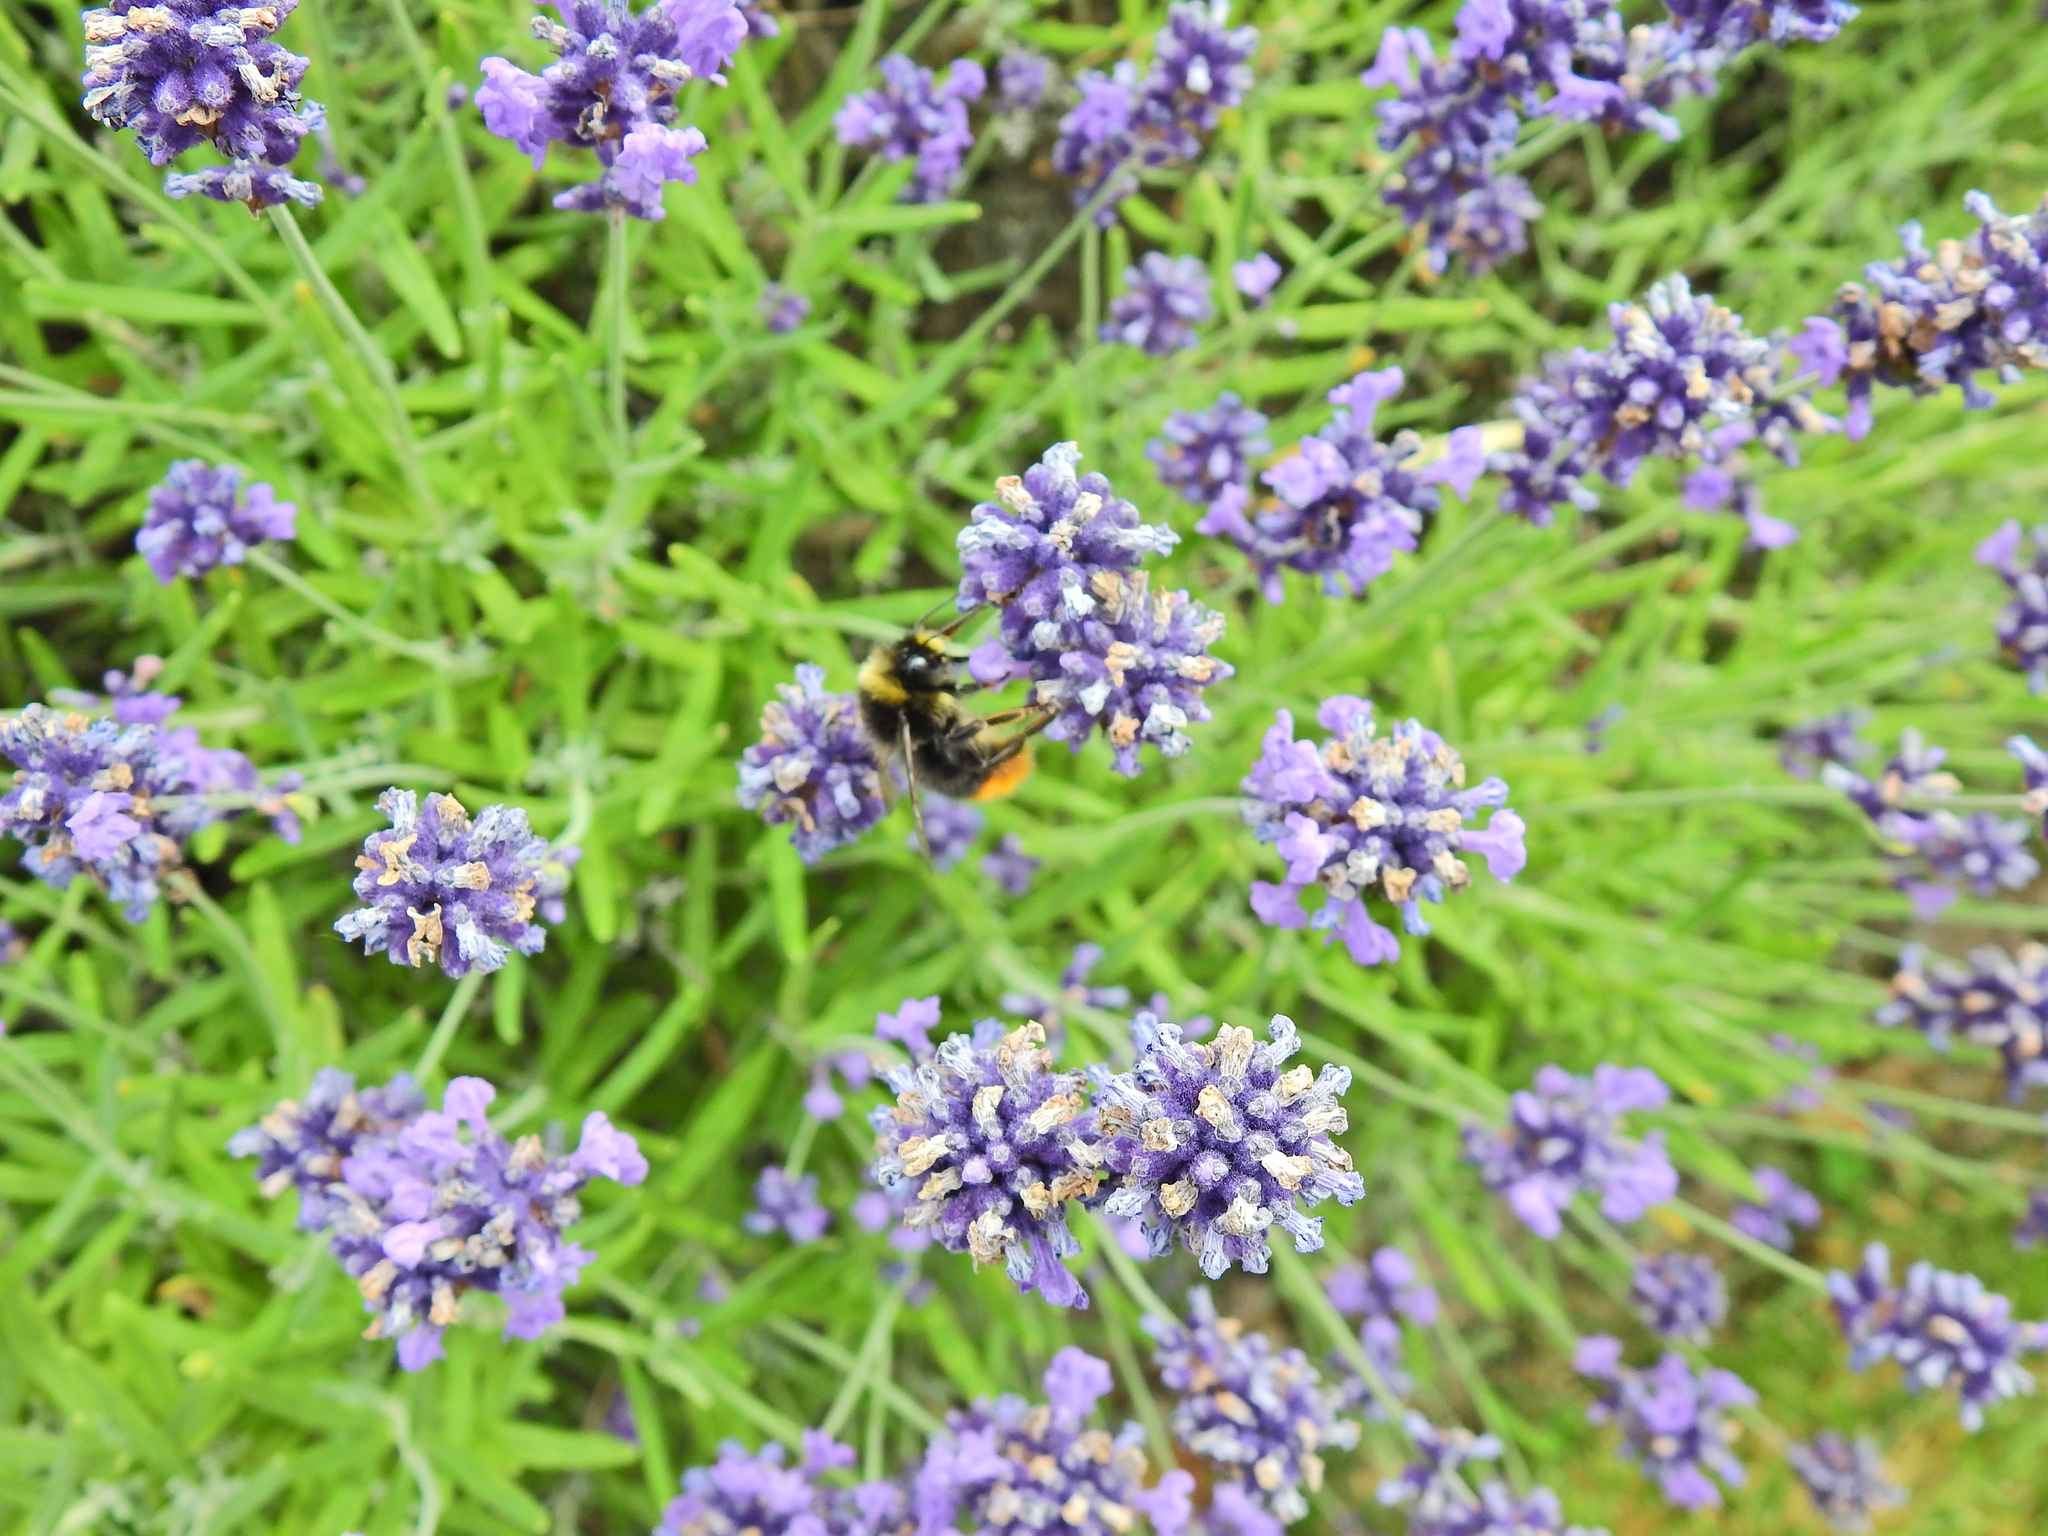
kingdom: Animalia
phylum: Arthropoda
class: Insecta
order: Hymenoptera
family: Apidae
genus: Bombus
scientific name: Bombus lapidarius
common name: Large red-tailed humble-bee
